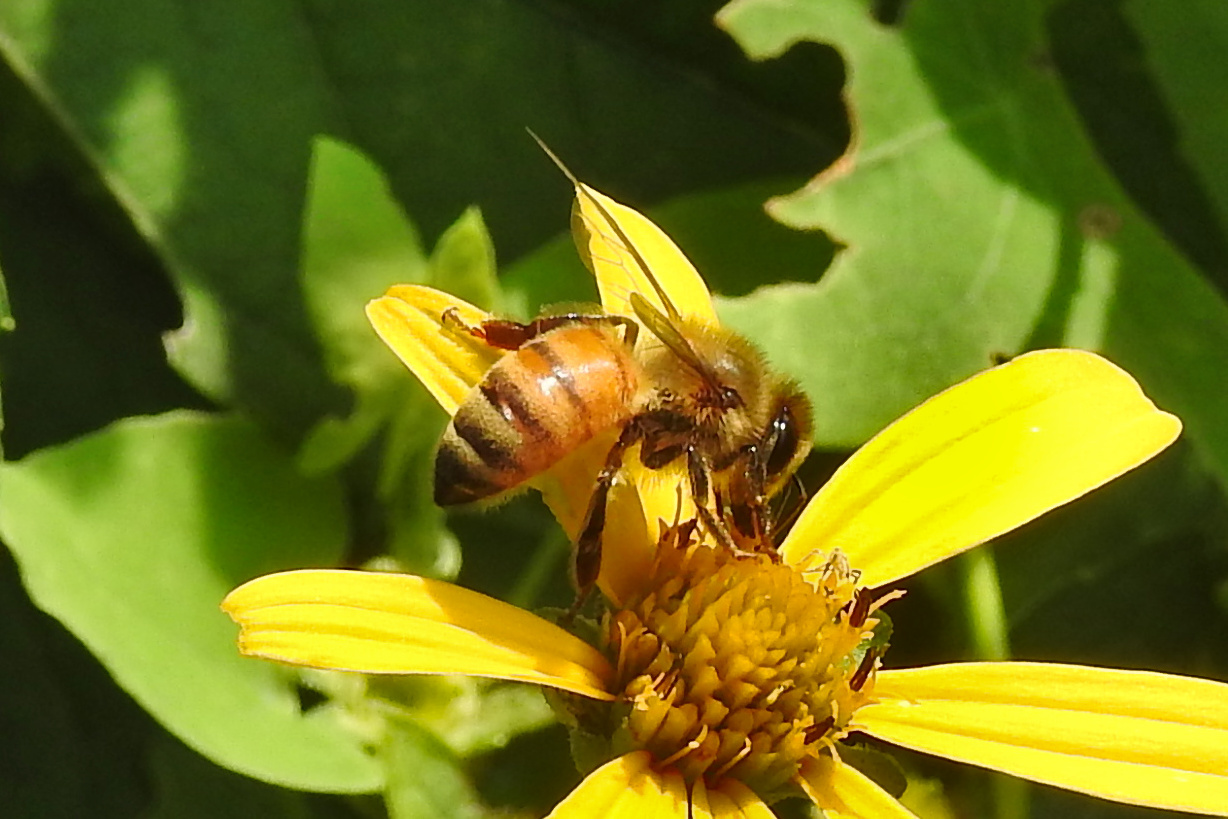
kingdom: Animalia
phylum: Arthropoda
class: Insecta
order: Hymenoptera
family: Apidae
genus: Apis
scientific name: Apis mellifera
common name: Honey bee
